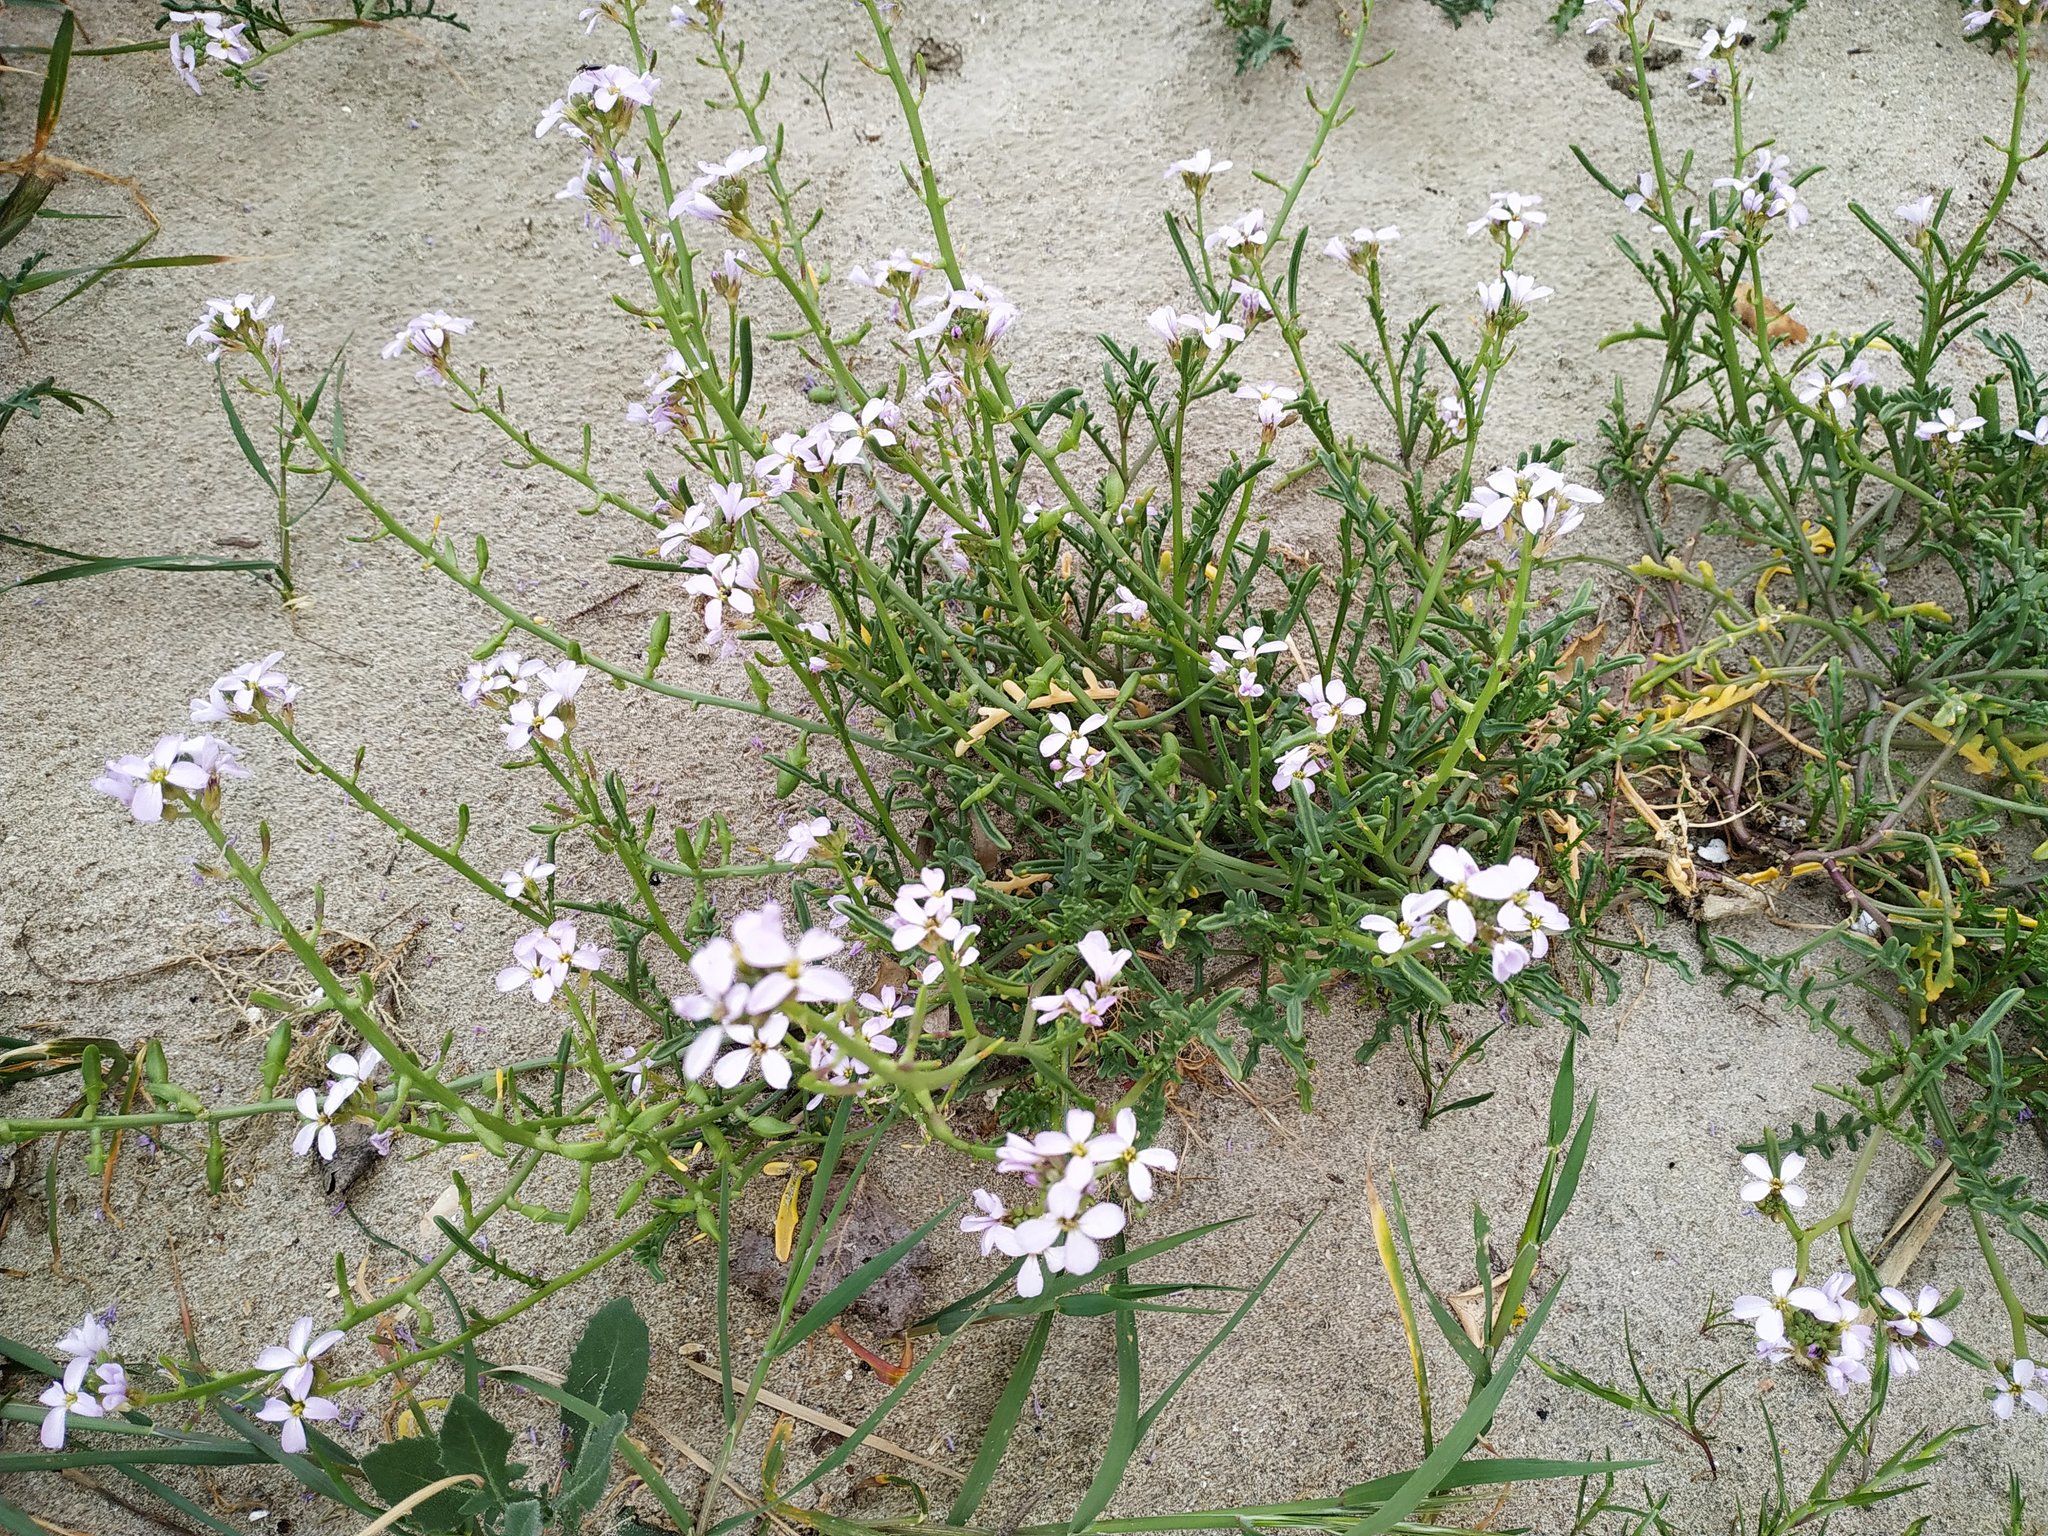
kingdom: Plantae
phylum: Tracheophyta
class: Magnoliopsida
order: Brassicales
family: Brassicaceae
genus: Cakile
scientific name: Cakile maritima
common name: Sea rocket
